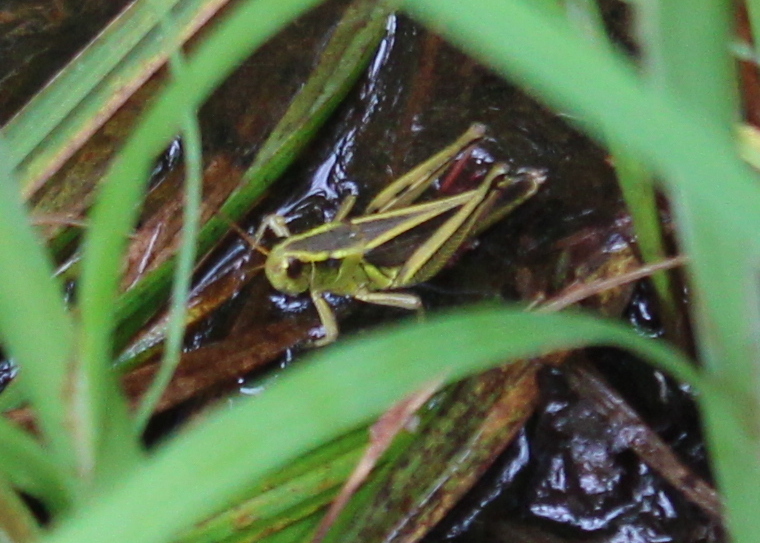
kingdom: Animalia
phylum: Arthropoda
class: Insecta
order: Orthoptera
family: Acrididae
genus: Melanoplus
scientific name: Melanoplus bivittatus
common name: Two-striped grasshopper
